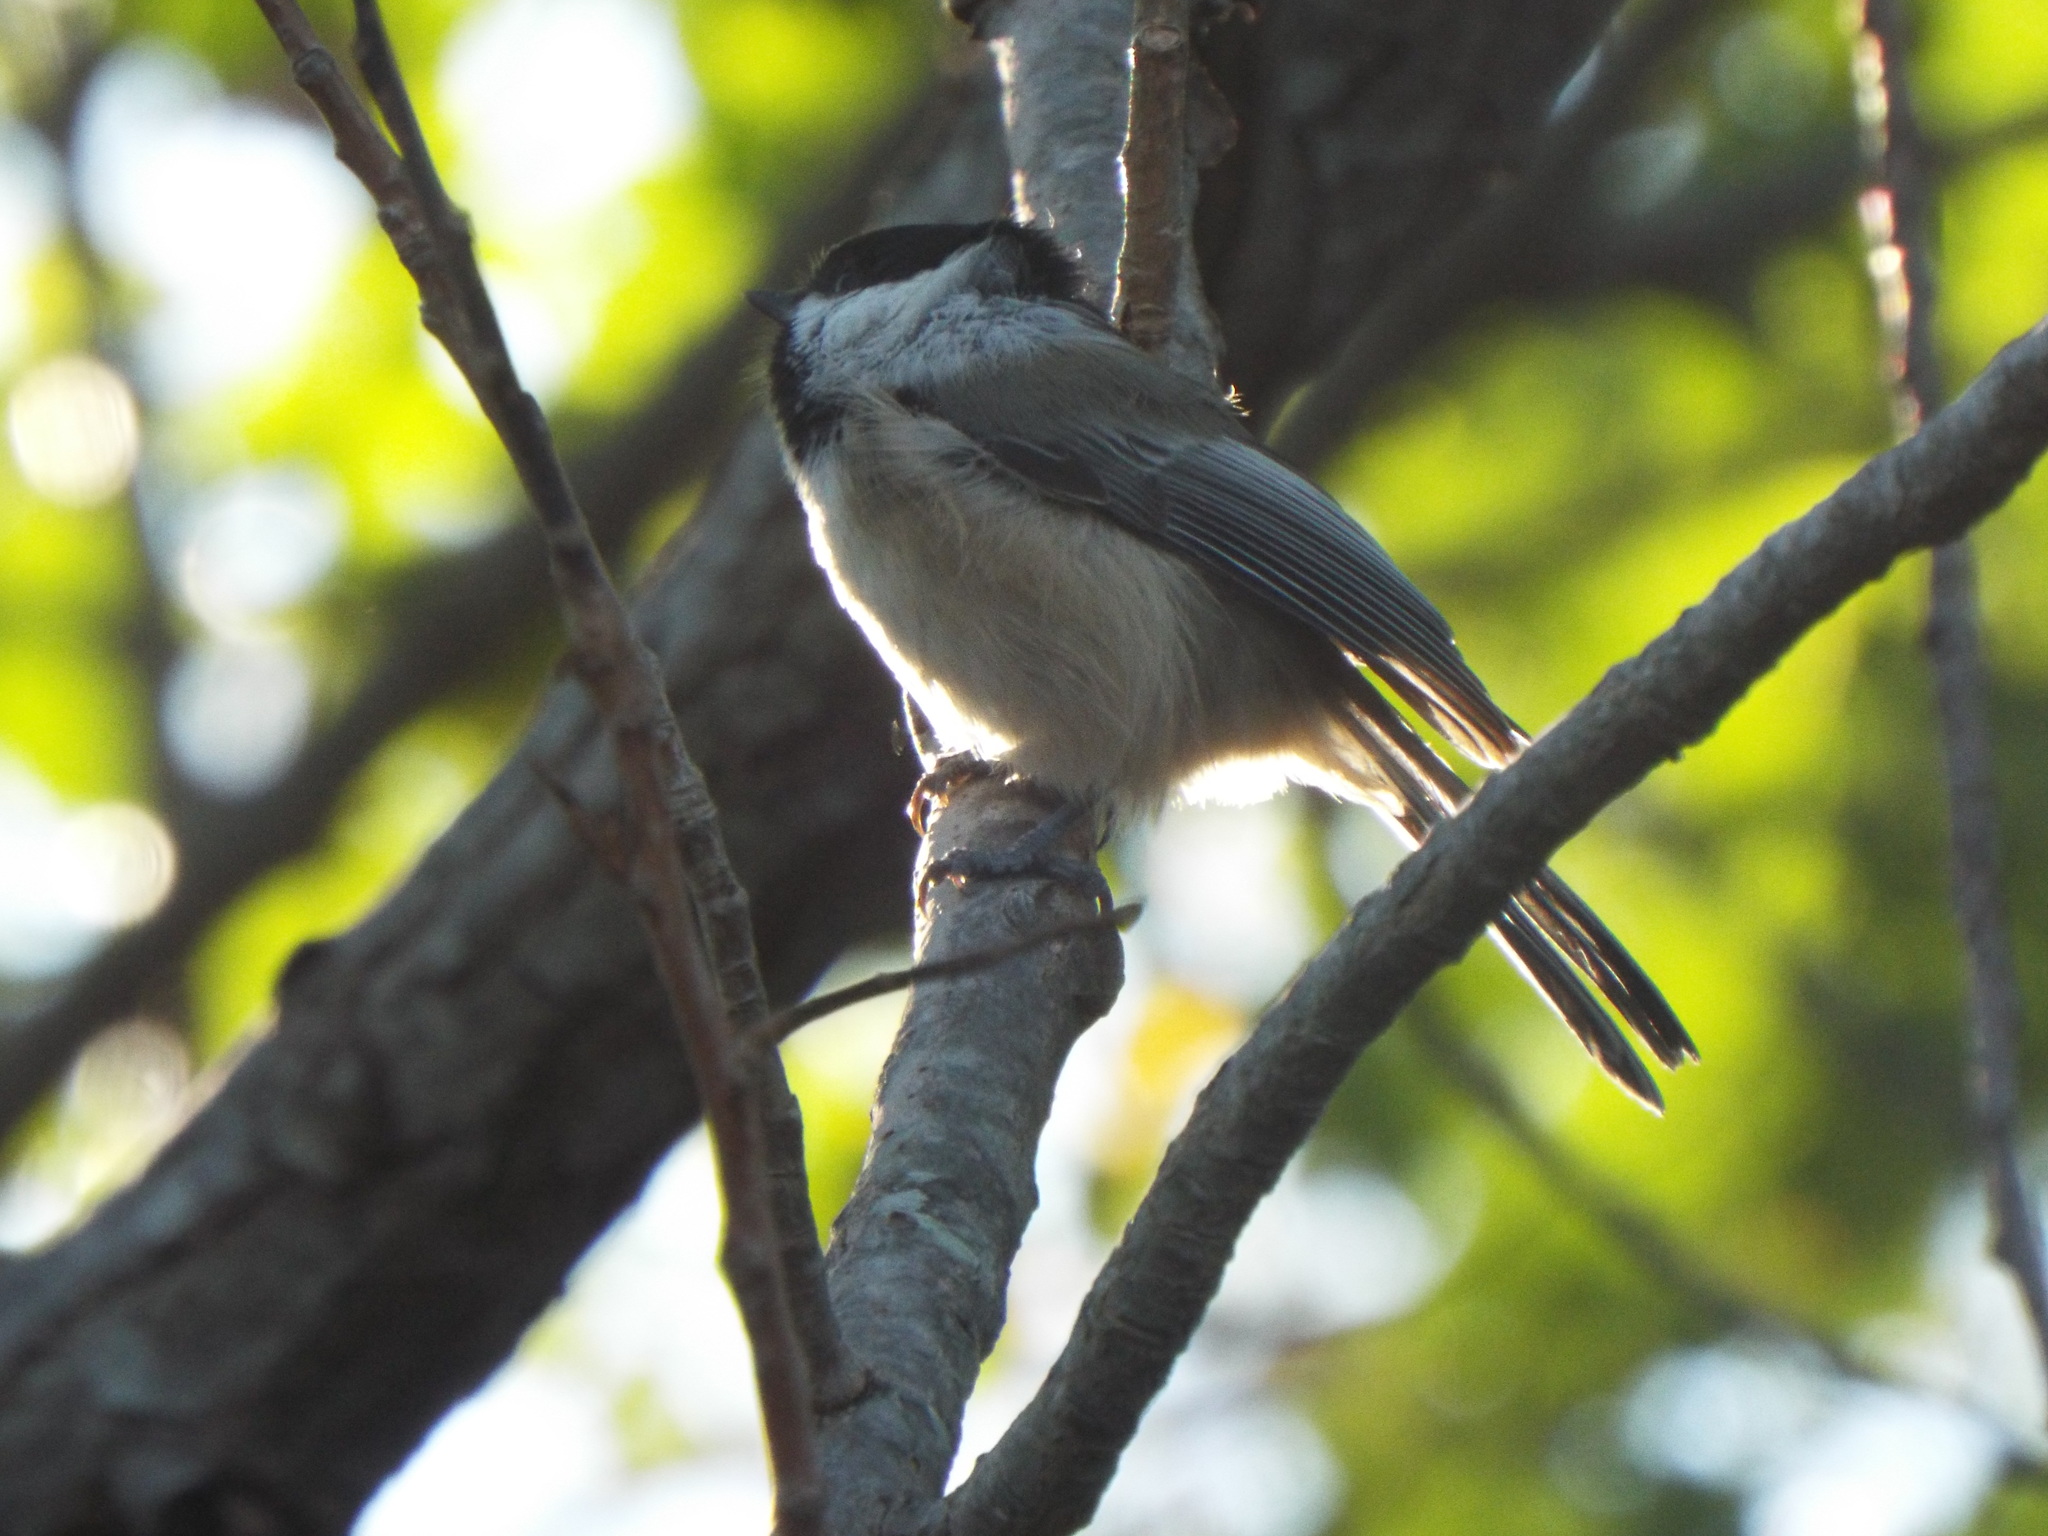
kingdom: Animalia
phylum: Chordata
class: Aves
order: Passeriformes
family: Paridae
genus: Poecile
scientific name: Poecile atricapillus
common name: Black-capped chickadee
